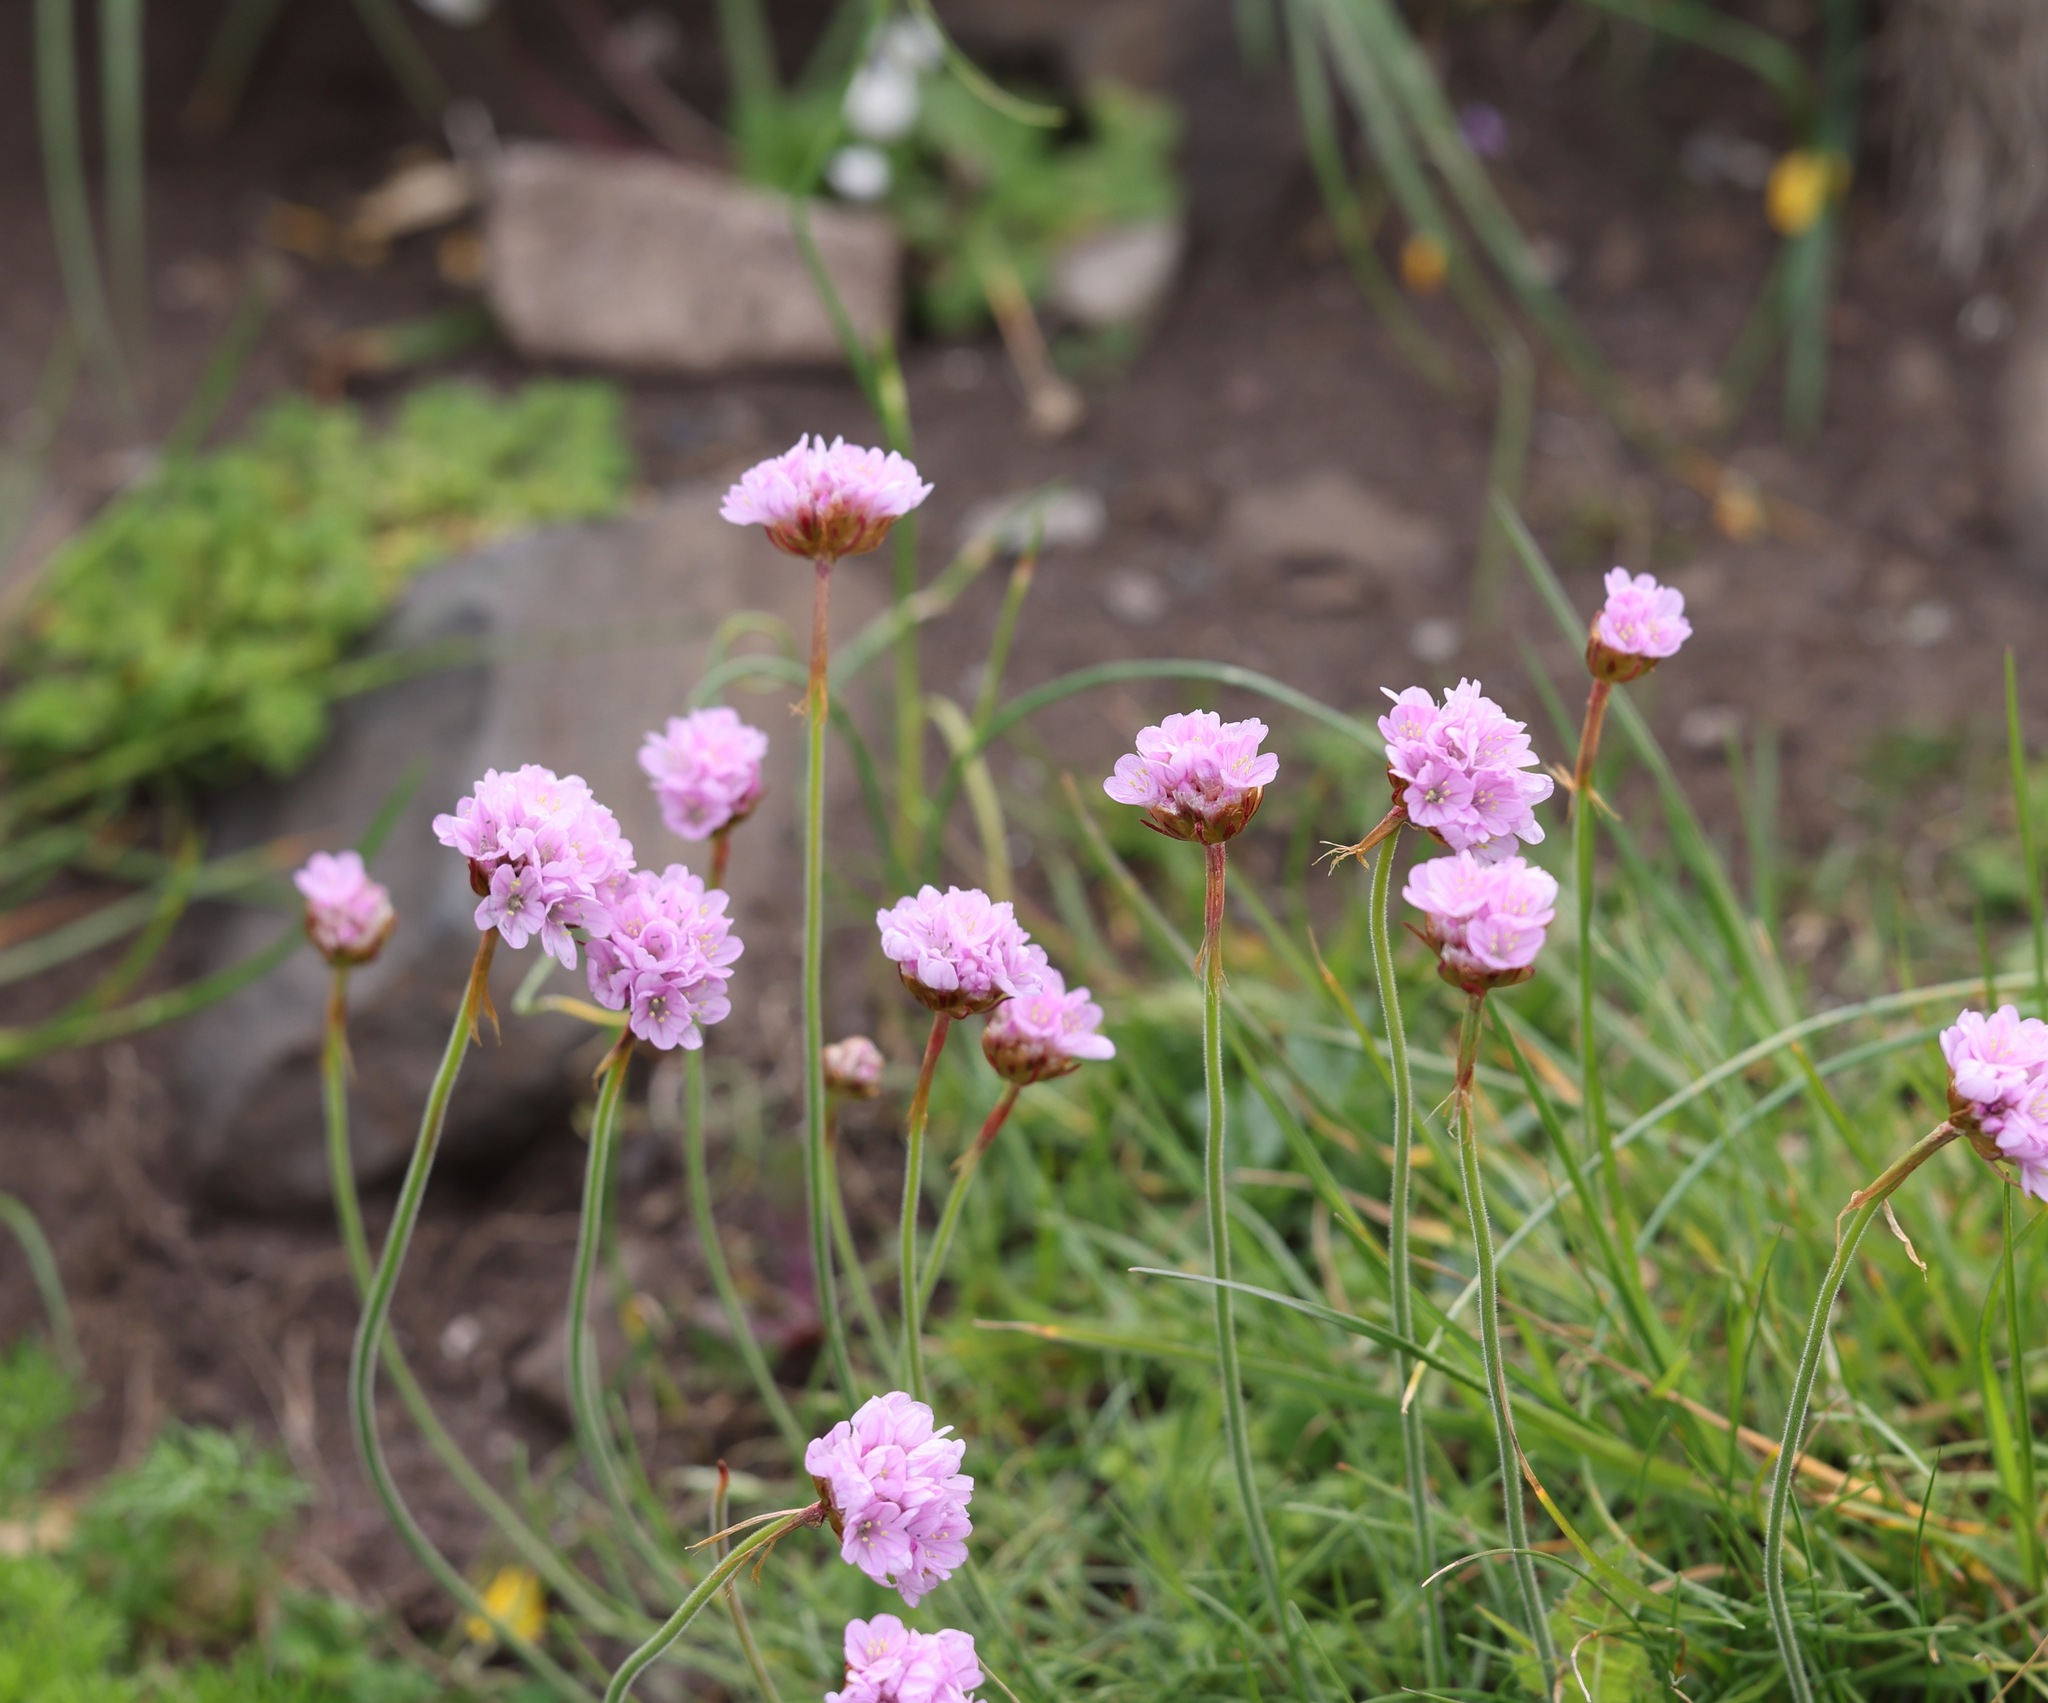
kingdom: Plantae
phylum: Tracheophyta
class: Magnoliopsida
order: Caryophyllales
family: Plumbaginaceae
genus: Armeria
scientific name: Armeria maritima
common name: Thrift
